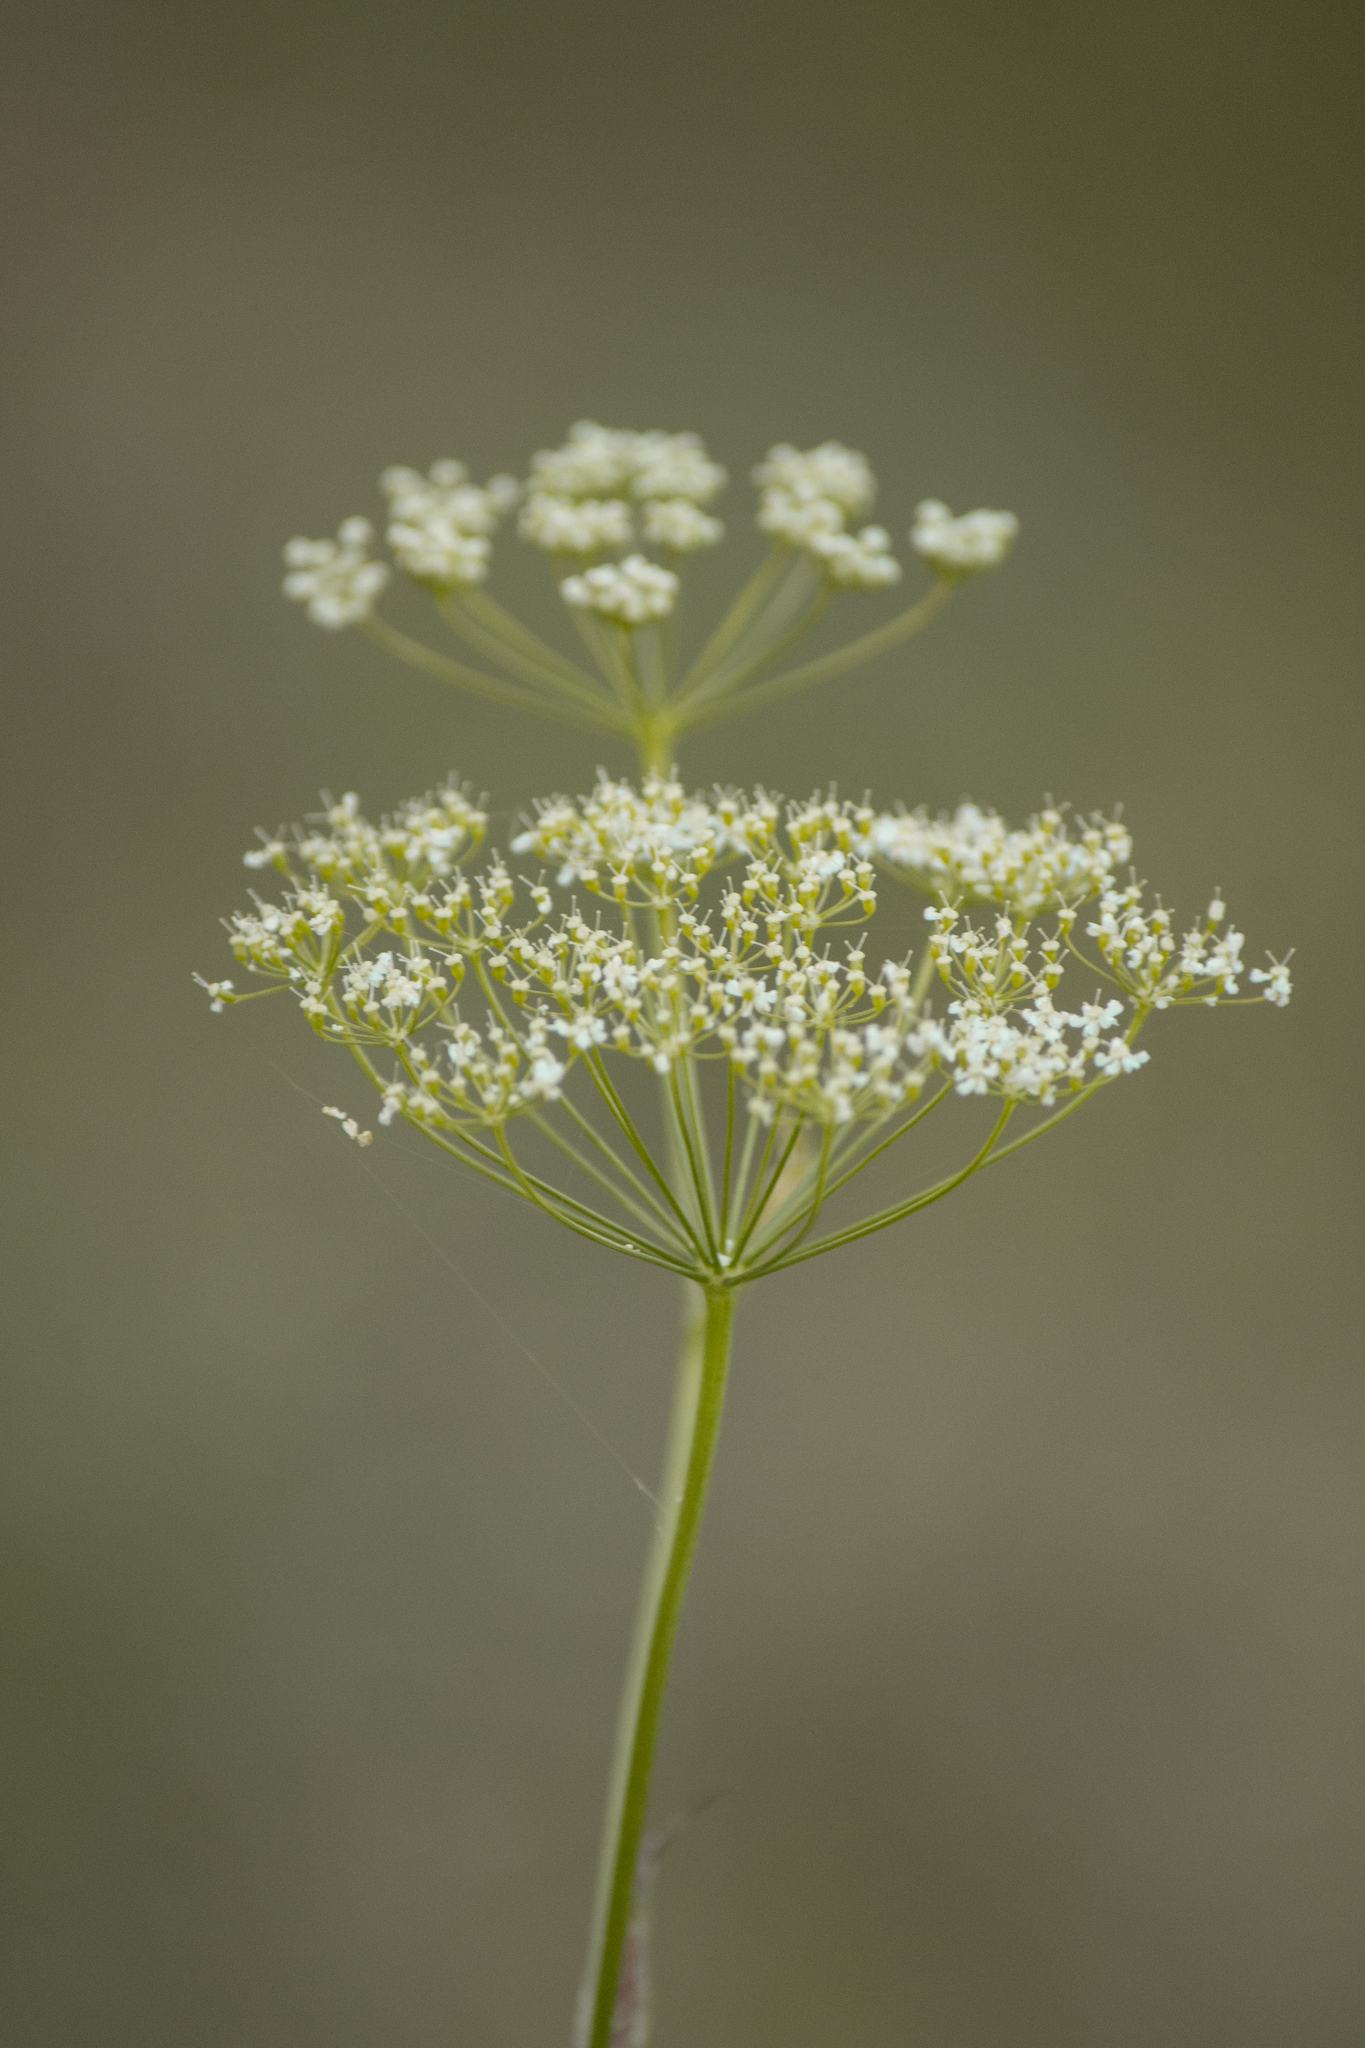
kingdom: Plantae
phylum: Tracheophyta
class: Magnoliopsida
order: Apiales
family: Apiaceae
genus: Pimpinella
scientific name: Pimpinella saxifraga
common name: Burnet-saxifrage
